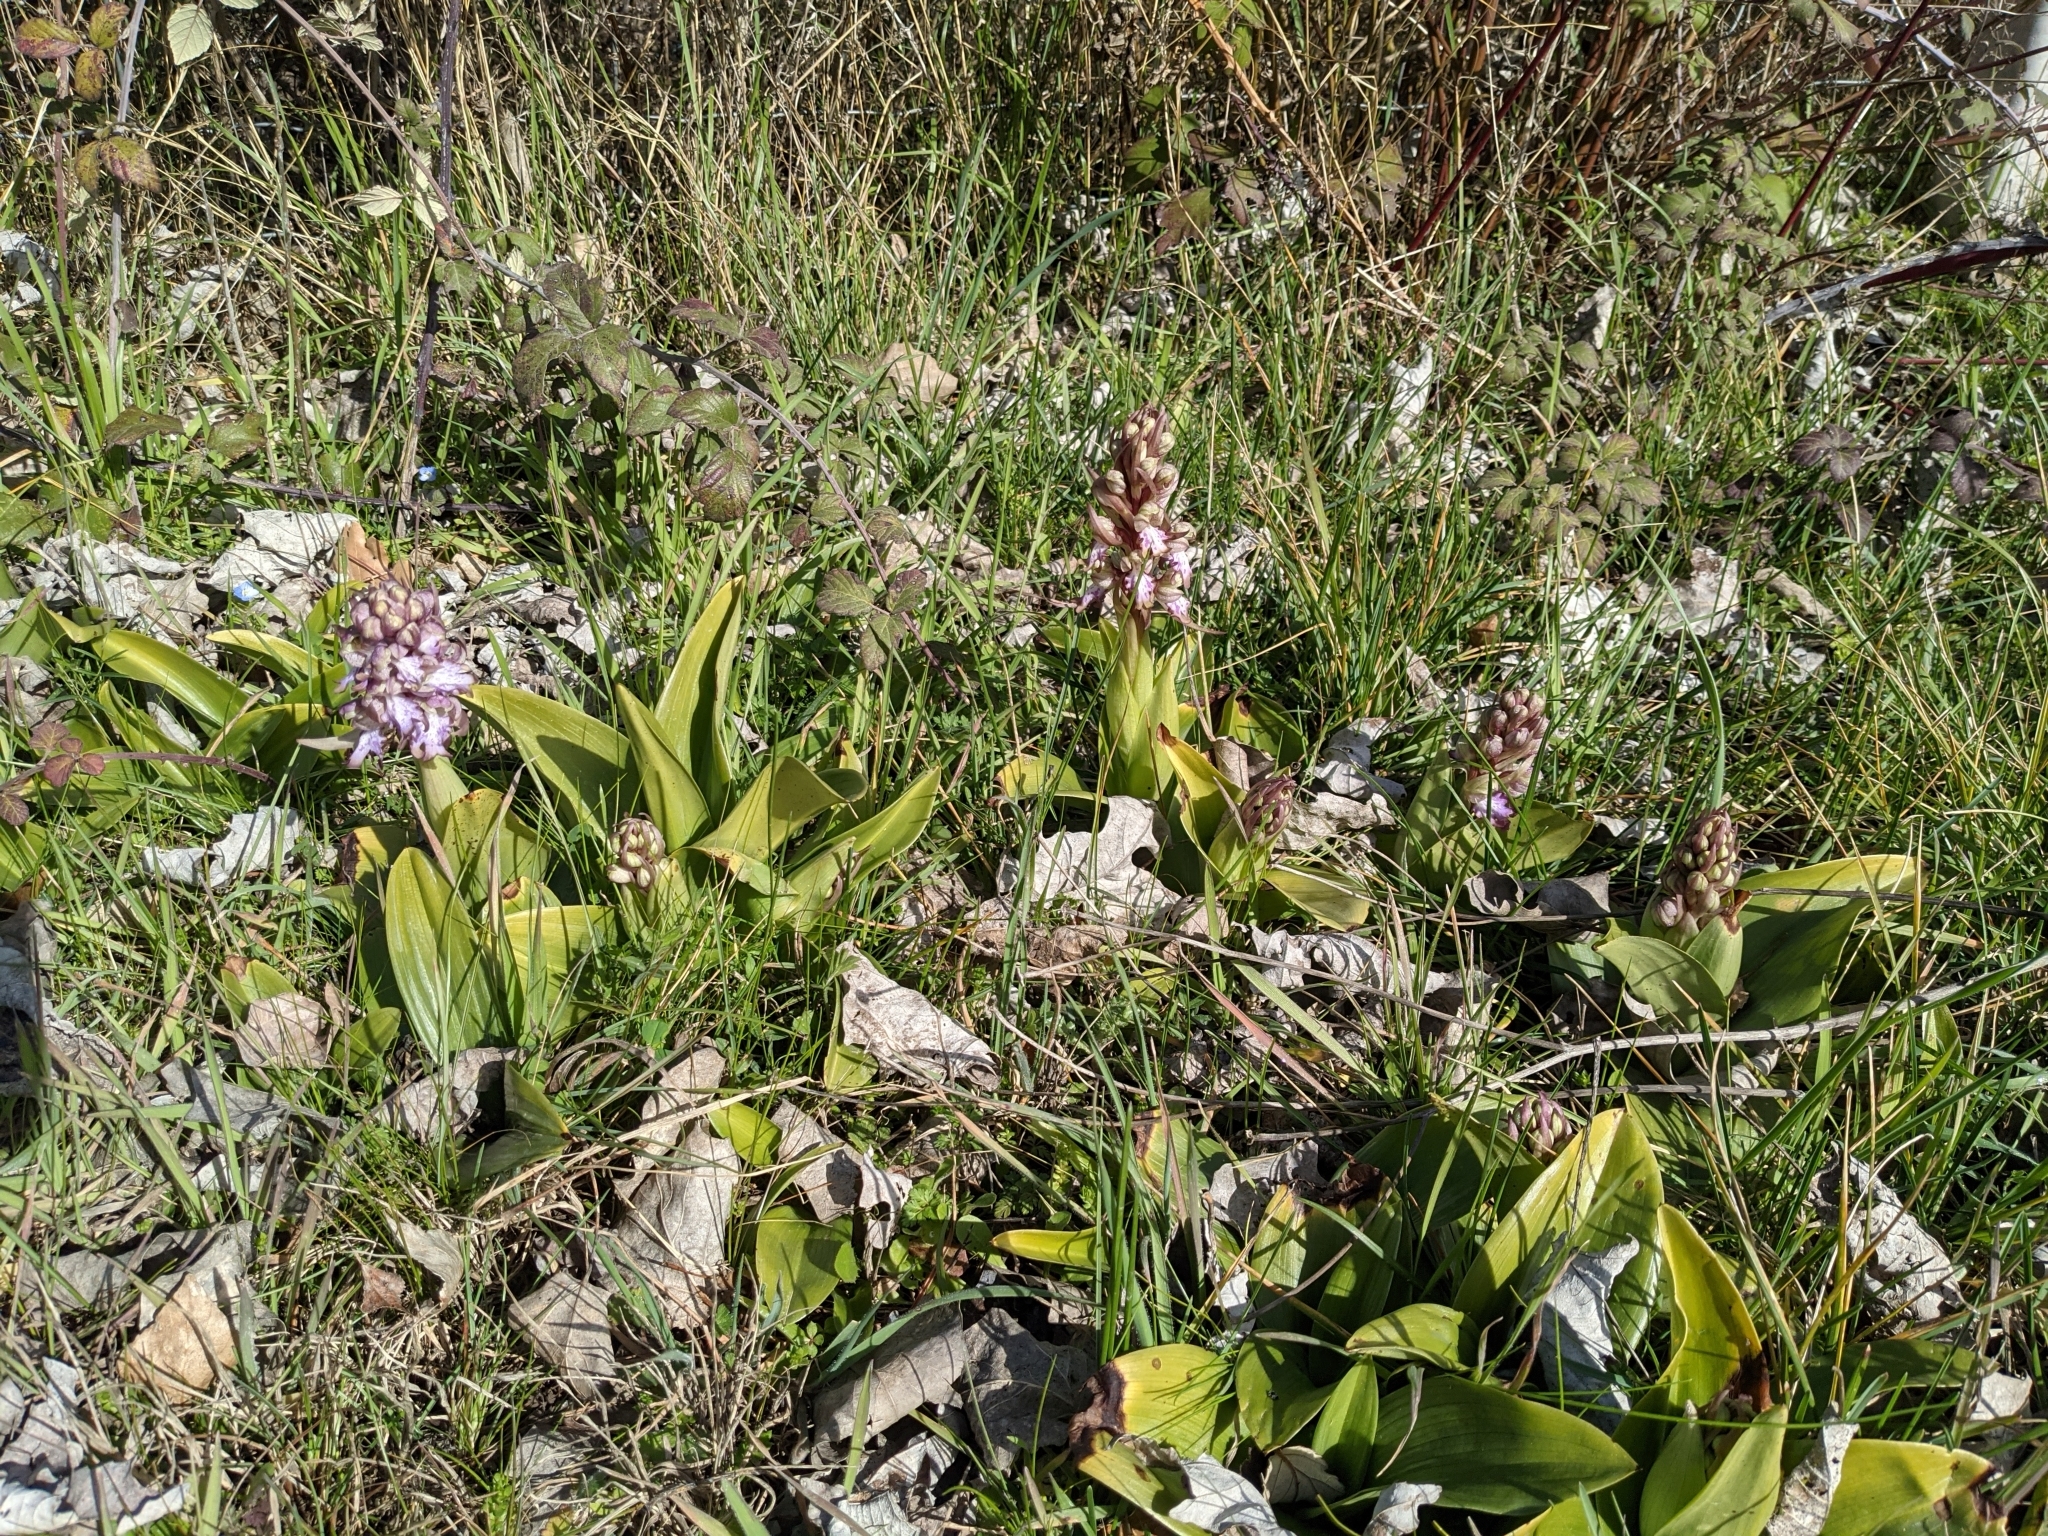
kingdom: Plantae
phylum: Tracheophyta
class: Liliopsida
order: Asparagales
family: Orchidaceae
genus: Himantoglossum
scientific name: Himantoglossum robertianum
